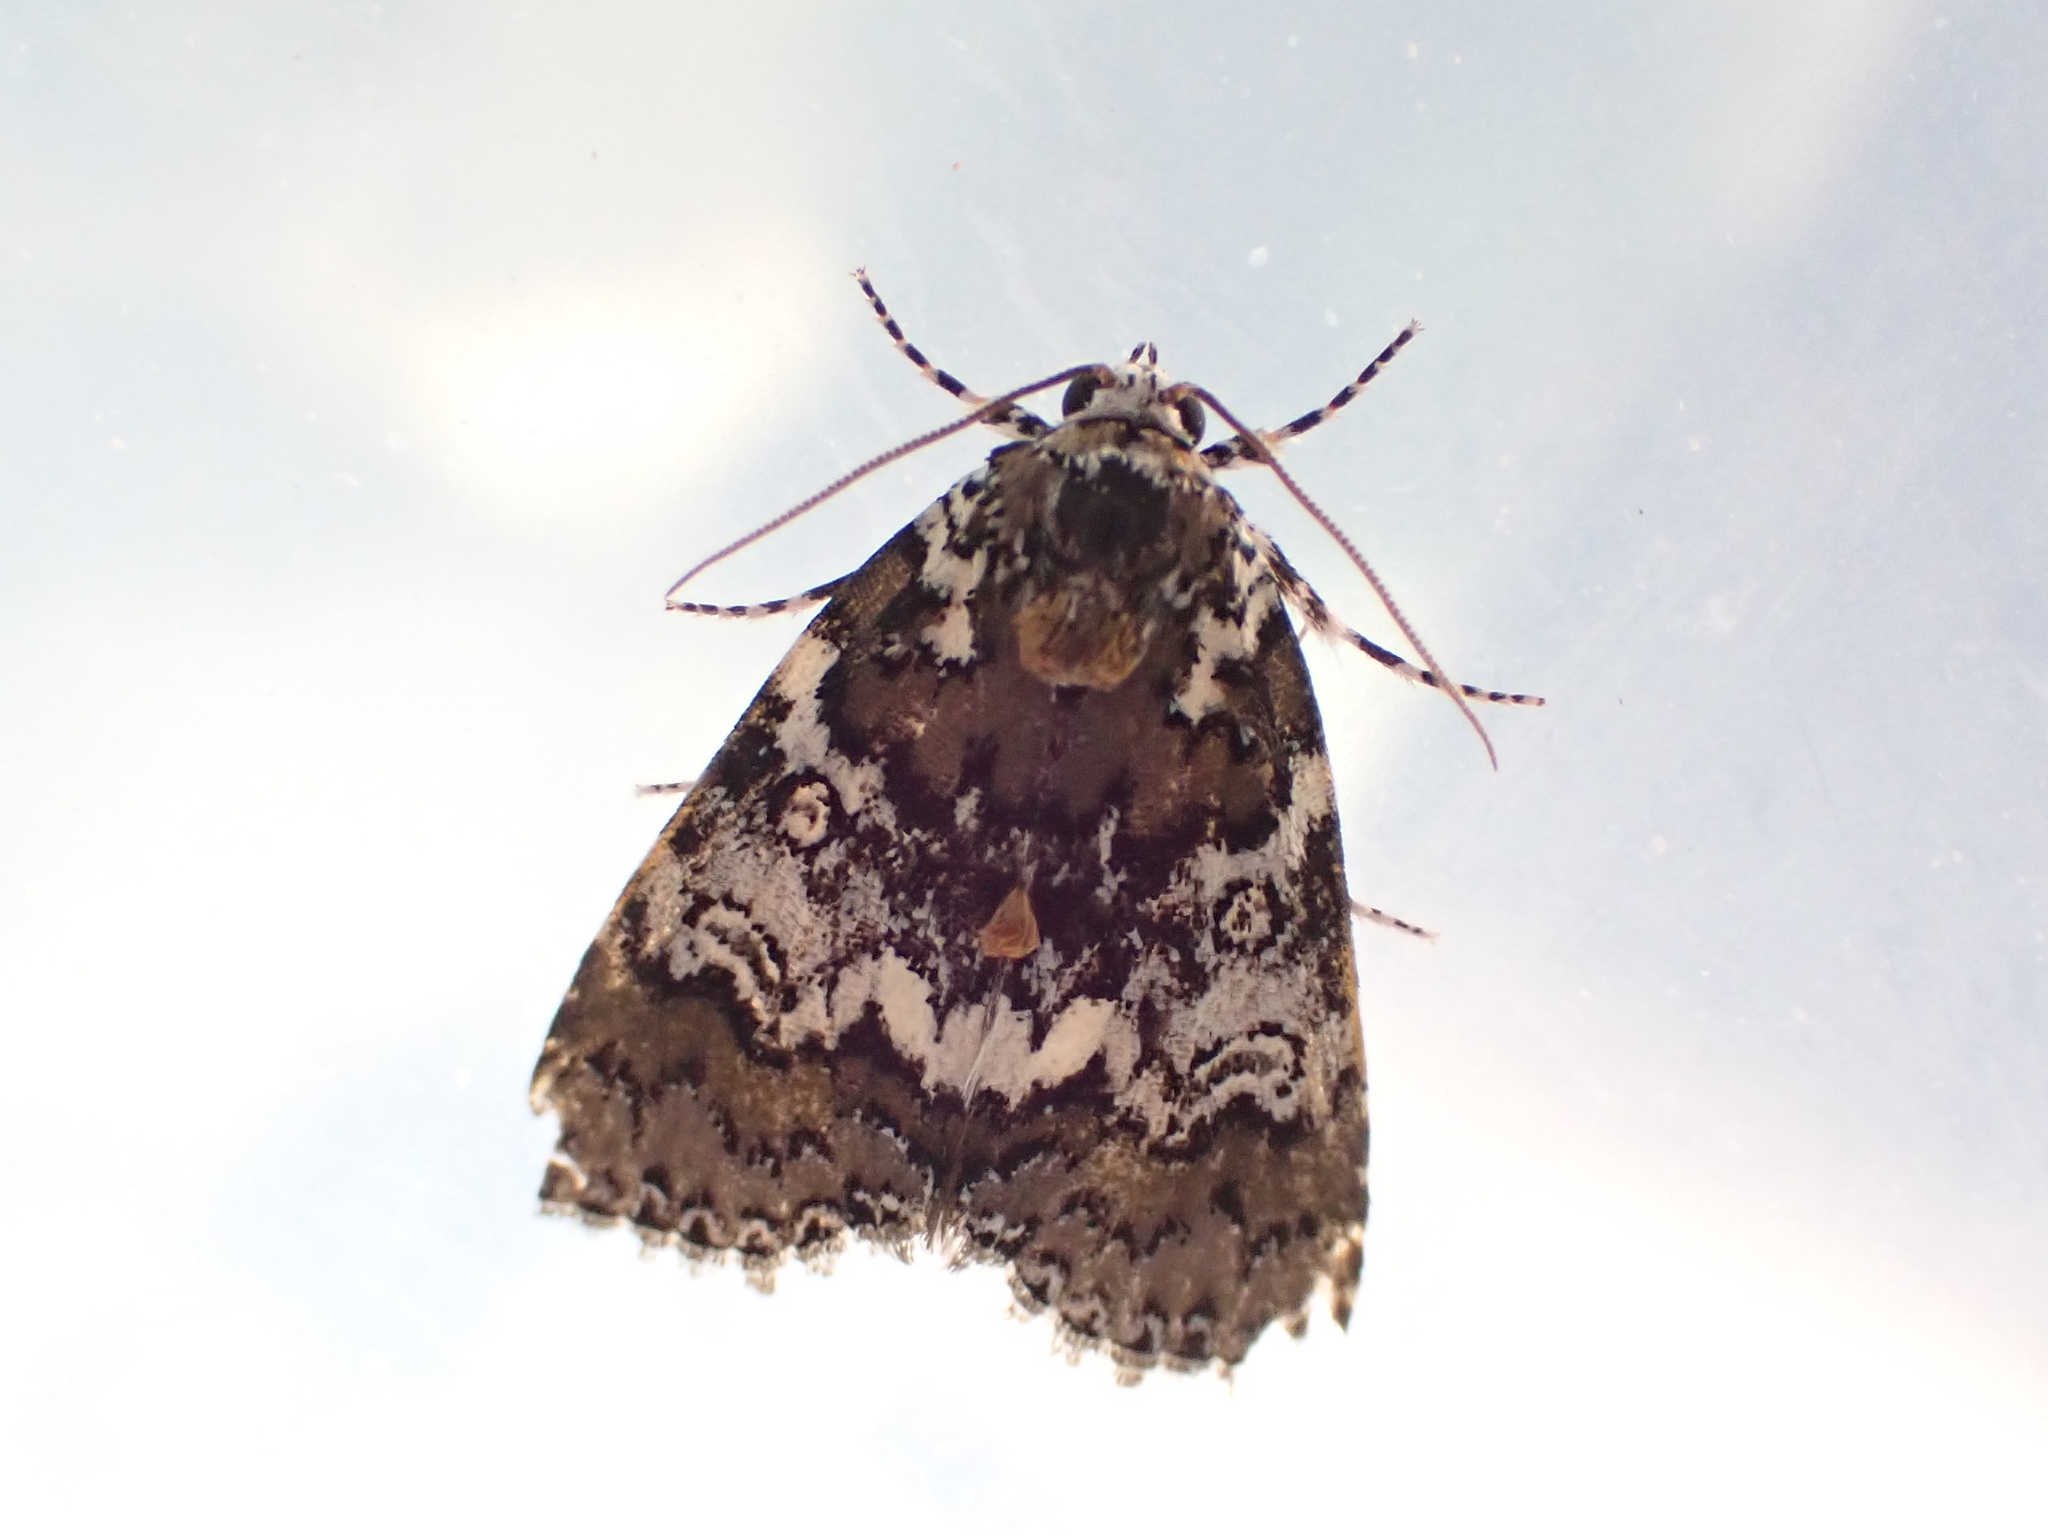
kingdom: Animalia
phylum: Arthropoda
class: Insecta
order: Lepidoptera
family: Noctuidae
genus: Cerma
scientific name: Cerma cora
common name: Bird dropping moth
